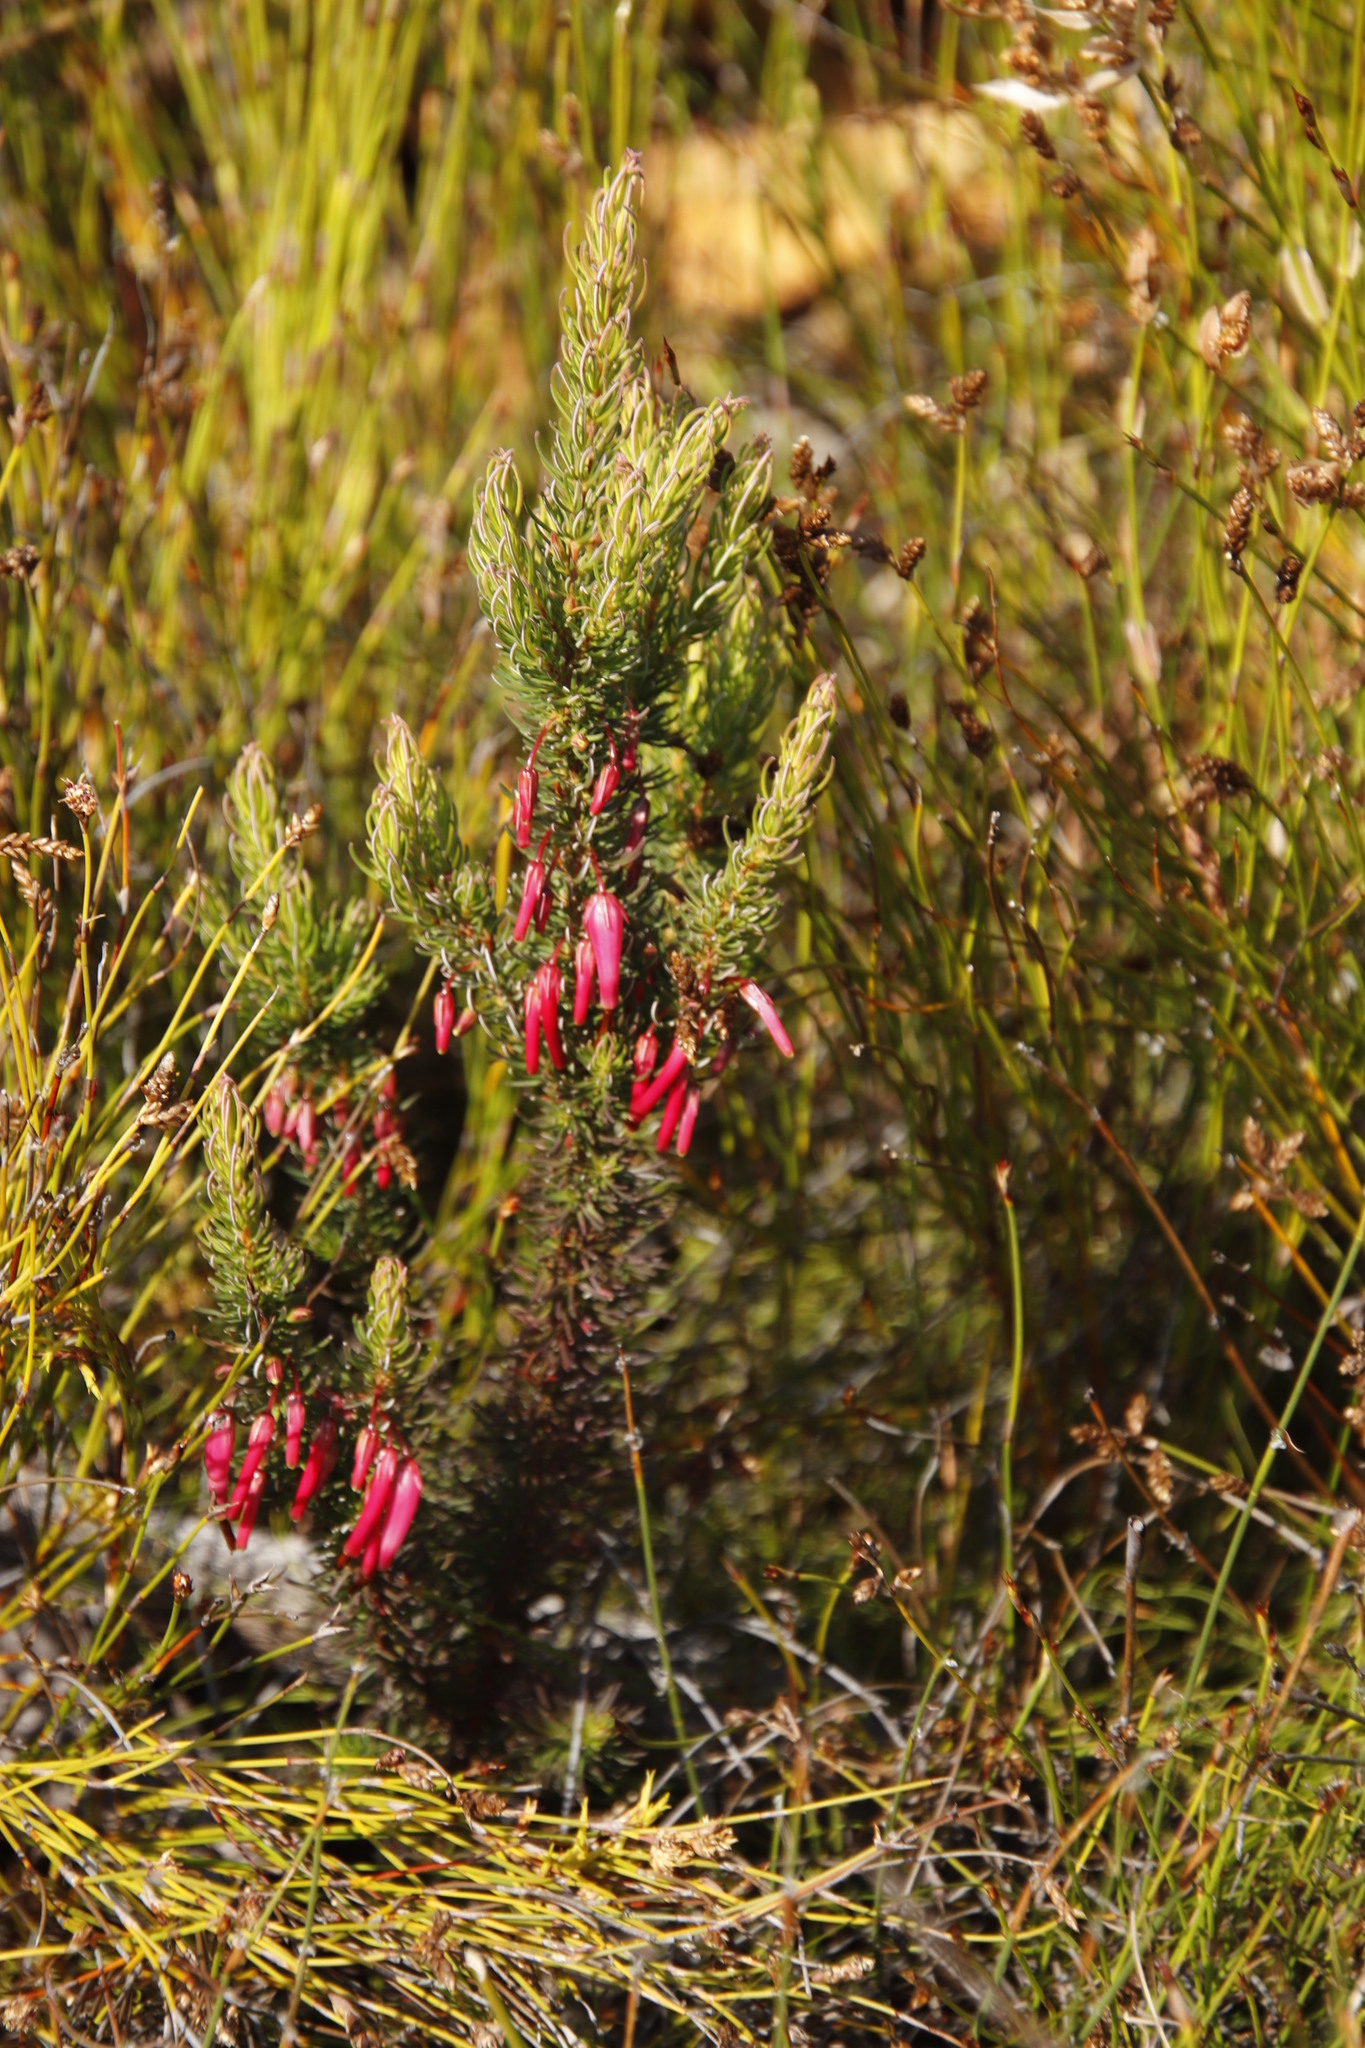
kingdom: Plantae
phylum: Tracheophyta
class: Magnoliopsida
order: Ericales
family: Ericaceae
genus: Erica
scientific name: Erica plukenetii
